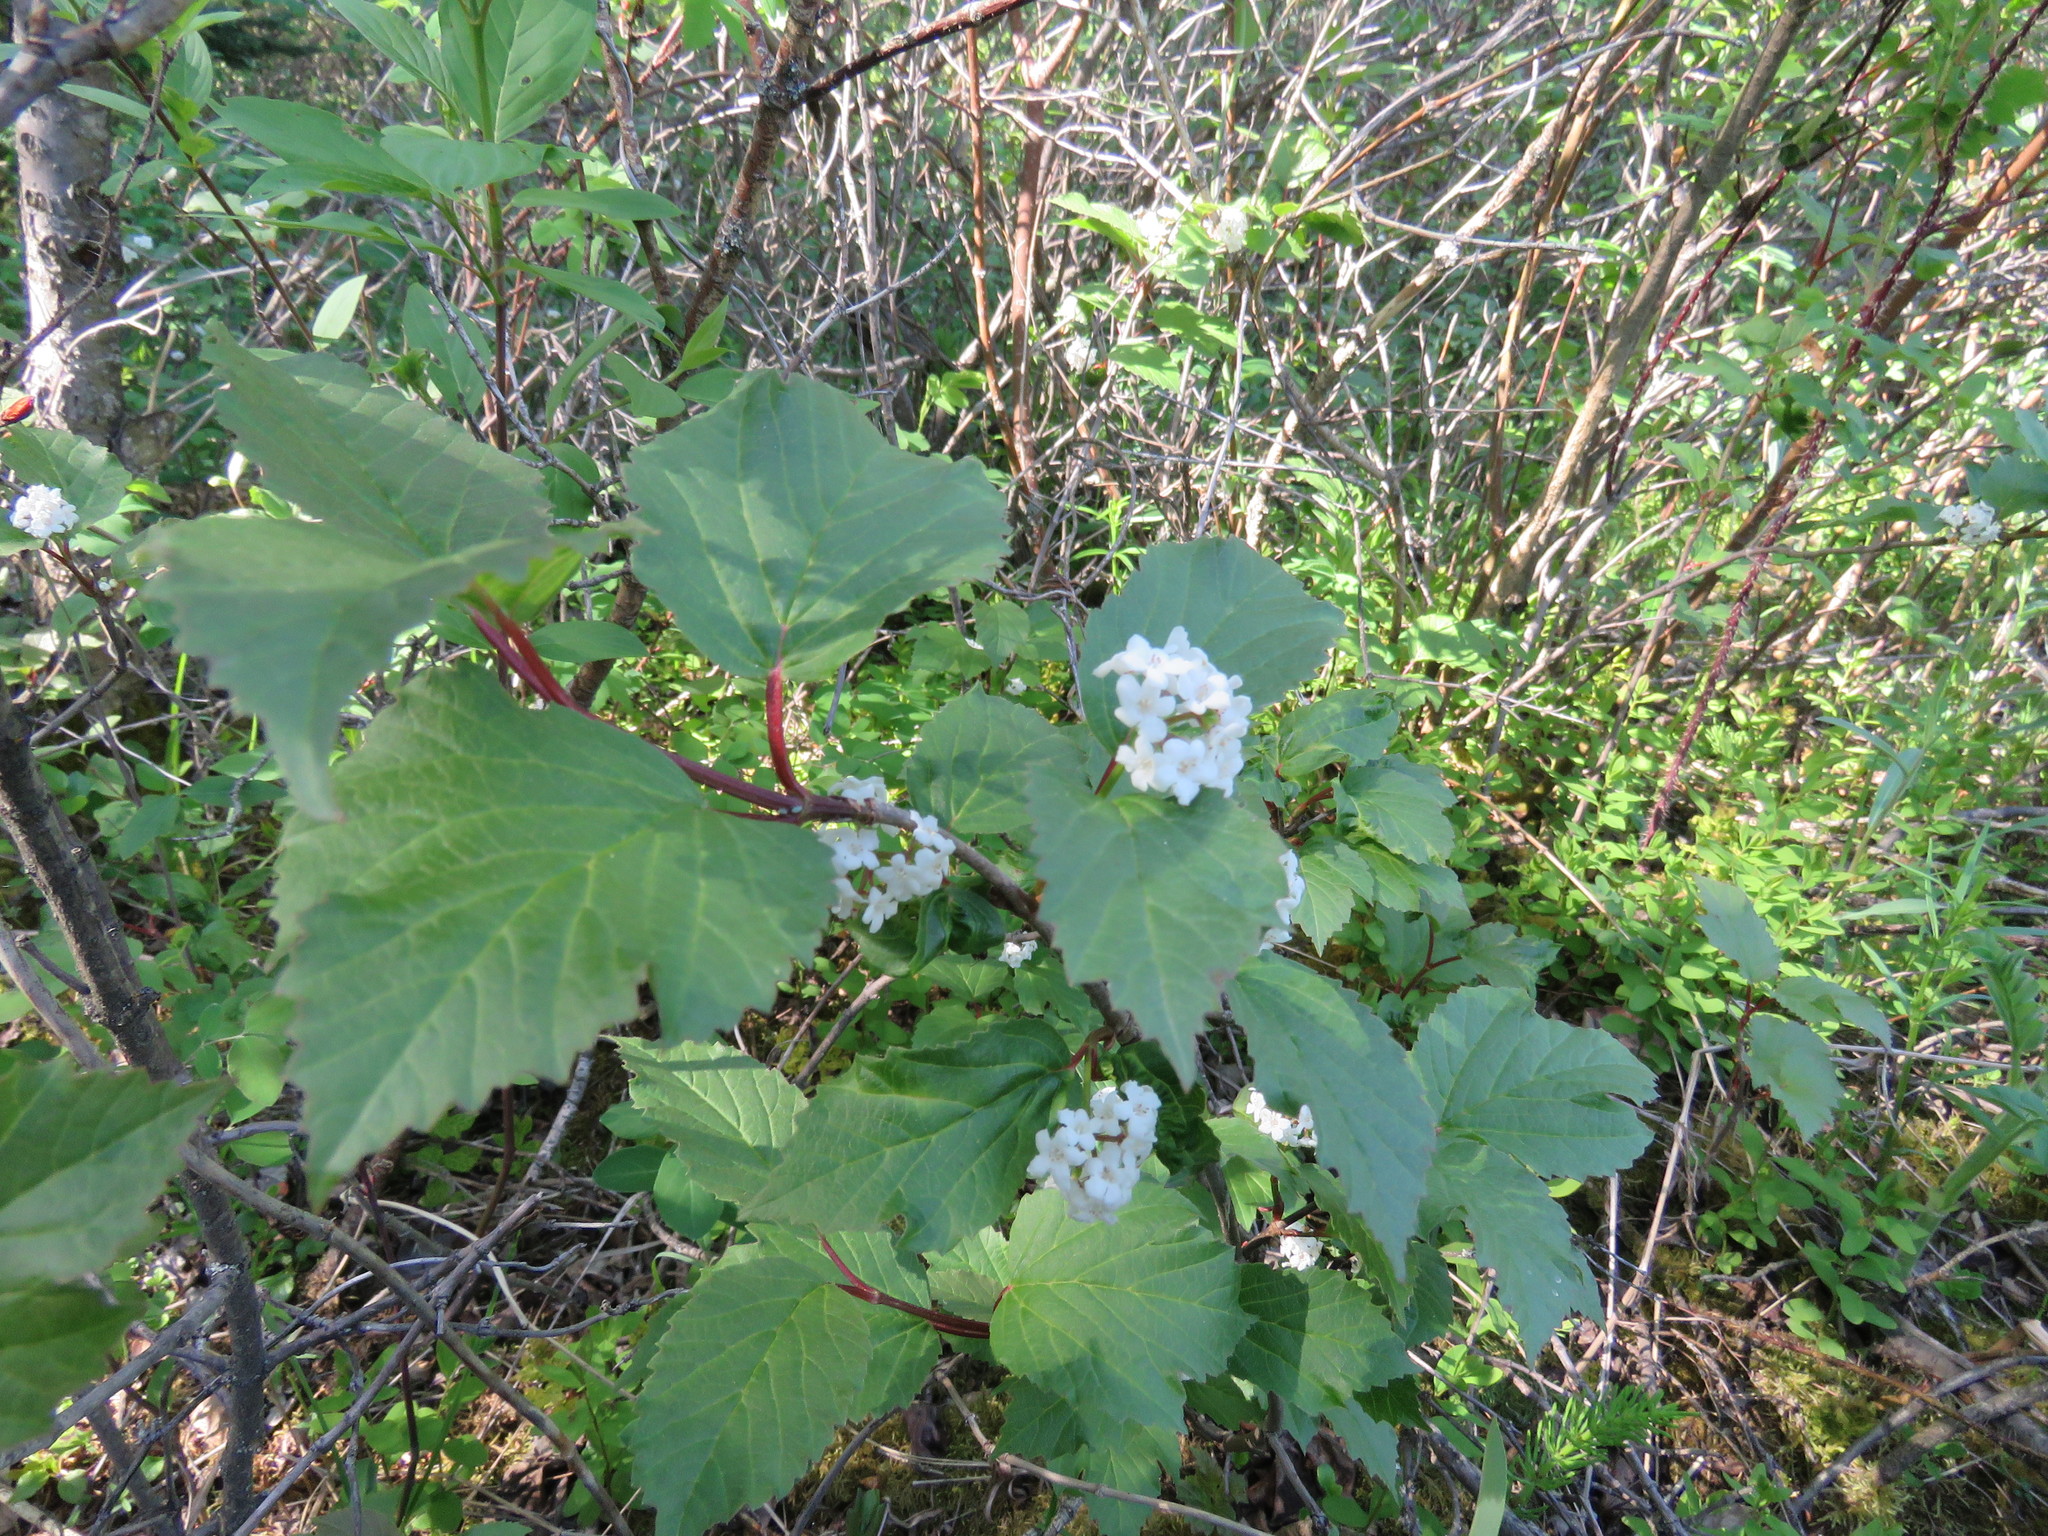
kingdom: Plantae
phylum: Tracheophyta
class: Magnoliopsida
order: Dipsacales
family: Viburnaceae
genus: Viburnum
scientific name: Viburnum edule
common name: Mooseberry
